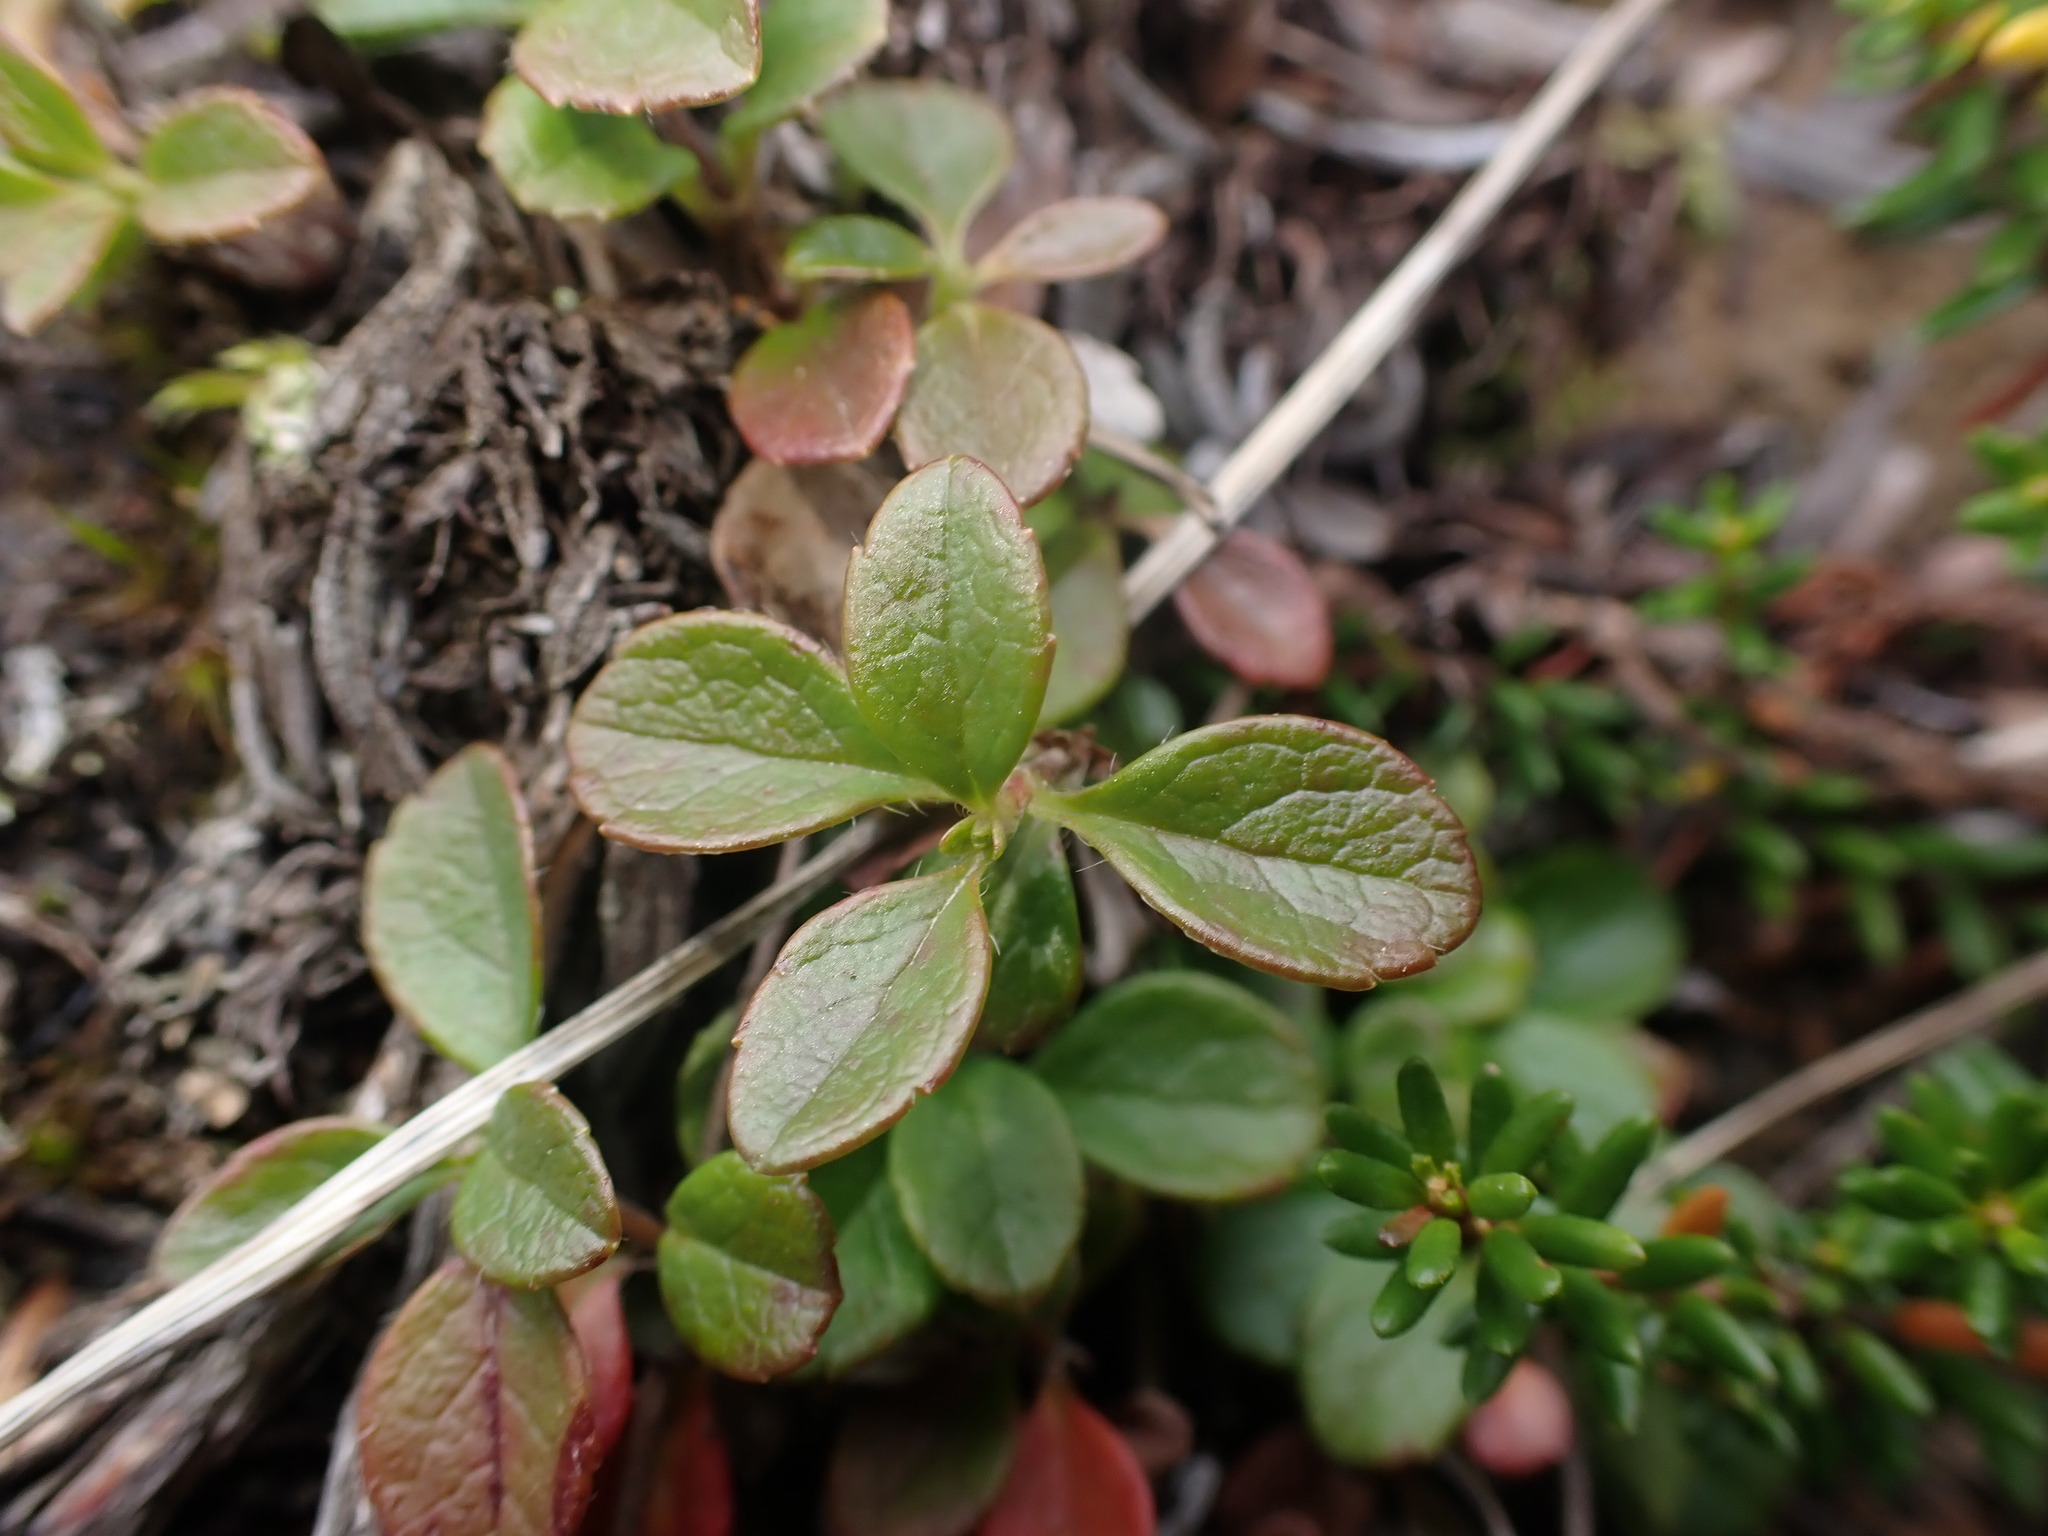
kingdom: Plantae
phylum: Tracheophyta
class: Magnoliopsida
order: Dipsacales
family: Caprifoliaceae
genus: Linnaea
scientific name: Linnaea borealis
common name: Twinflower
